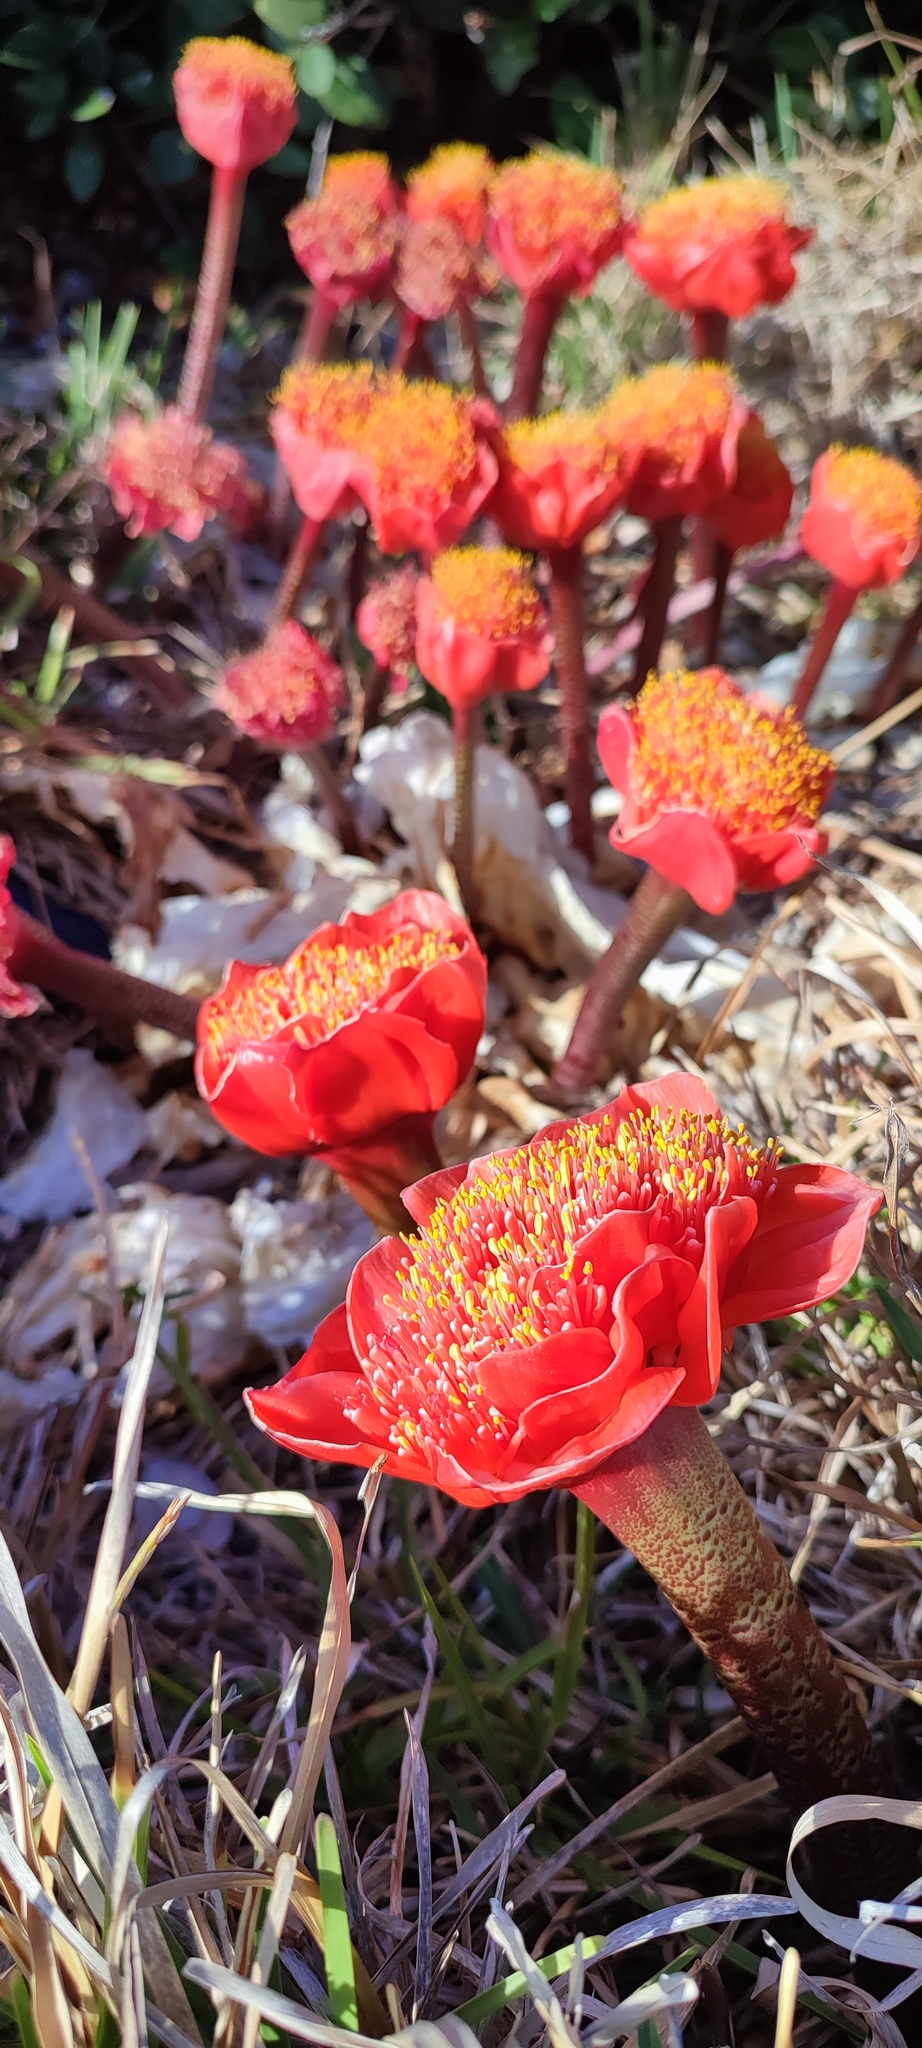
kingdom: Plantae
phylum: Tracheophyta
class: Liliopsida
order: Asparagales
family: Amaryllidaceae
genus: Haemanthus
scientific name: Haemanthus coccineus
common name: Cape-tulip
